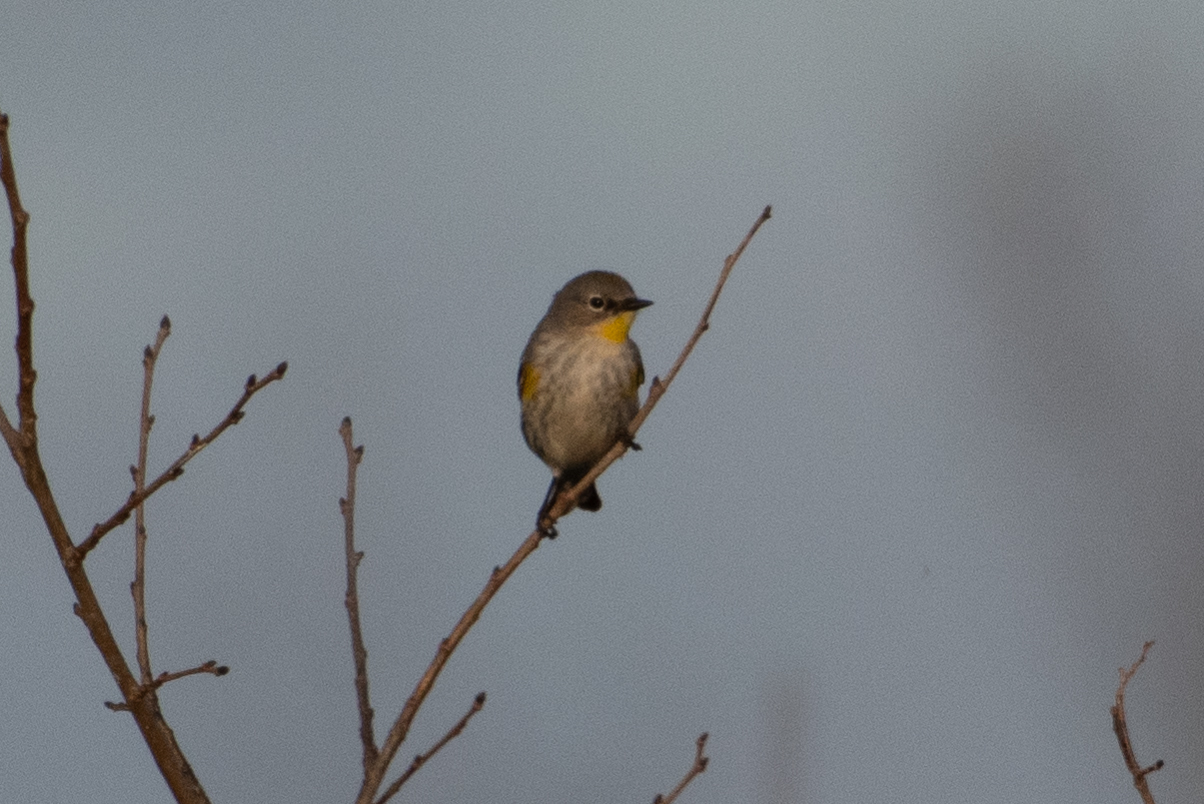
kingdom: Animalia
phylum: Chordata
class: Aves
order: Passeriformes
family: Parulidae
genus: Setophaga
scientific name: Setophaga coronata
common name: Myrtle warbler
